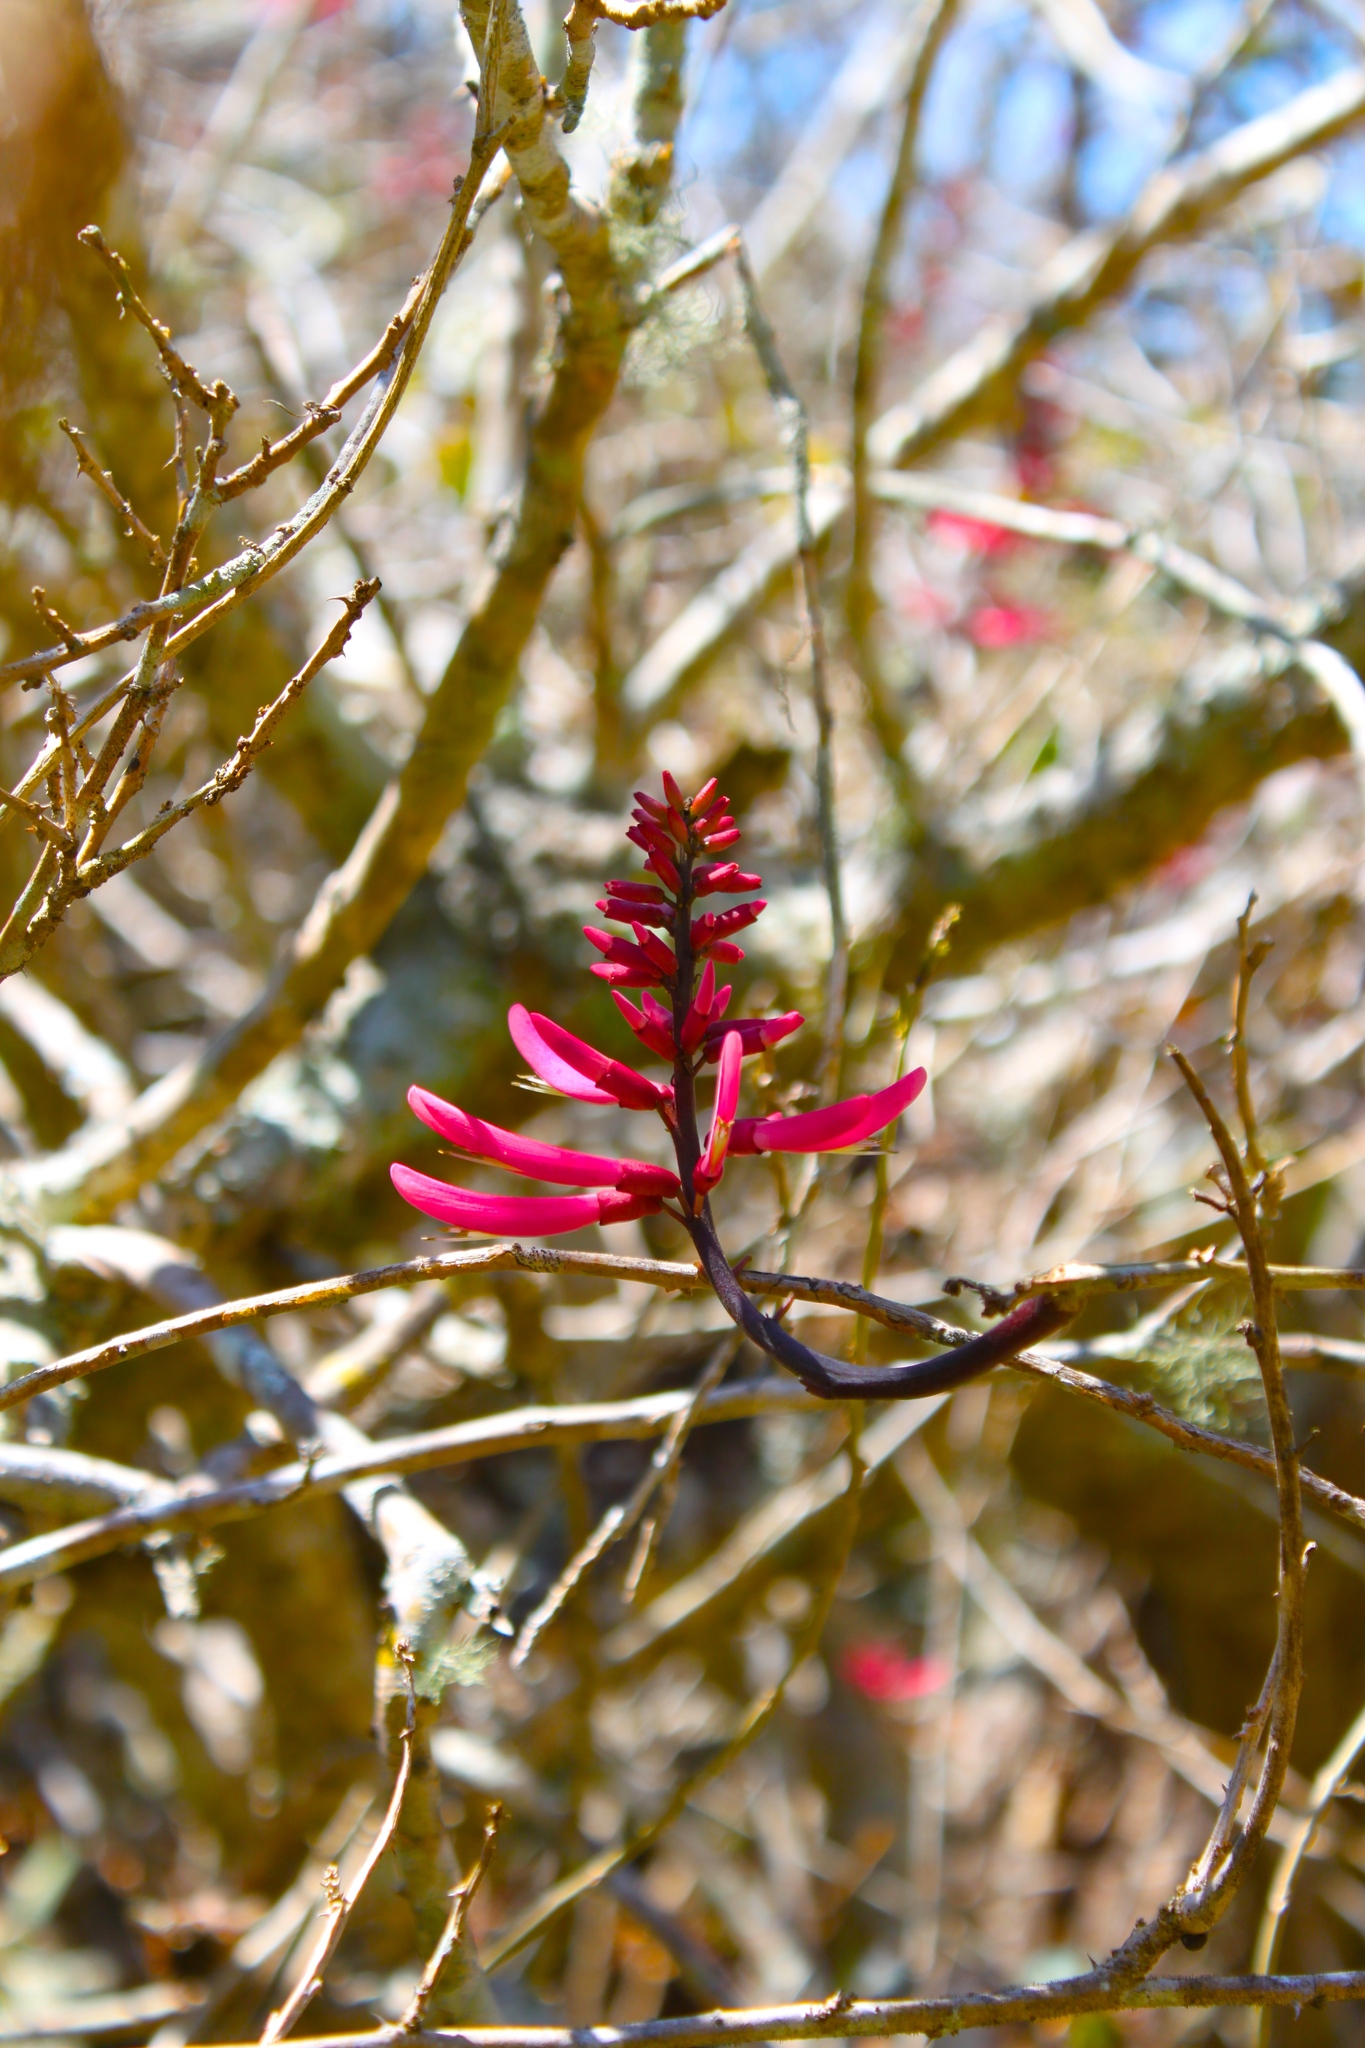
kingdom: Plantae
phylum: Tracheophyta
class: Magnoliopsida
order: Fabales
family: Fabaceae
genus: Erythrina
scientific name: Erythrina herbacea
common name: Coral-bean
